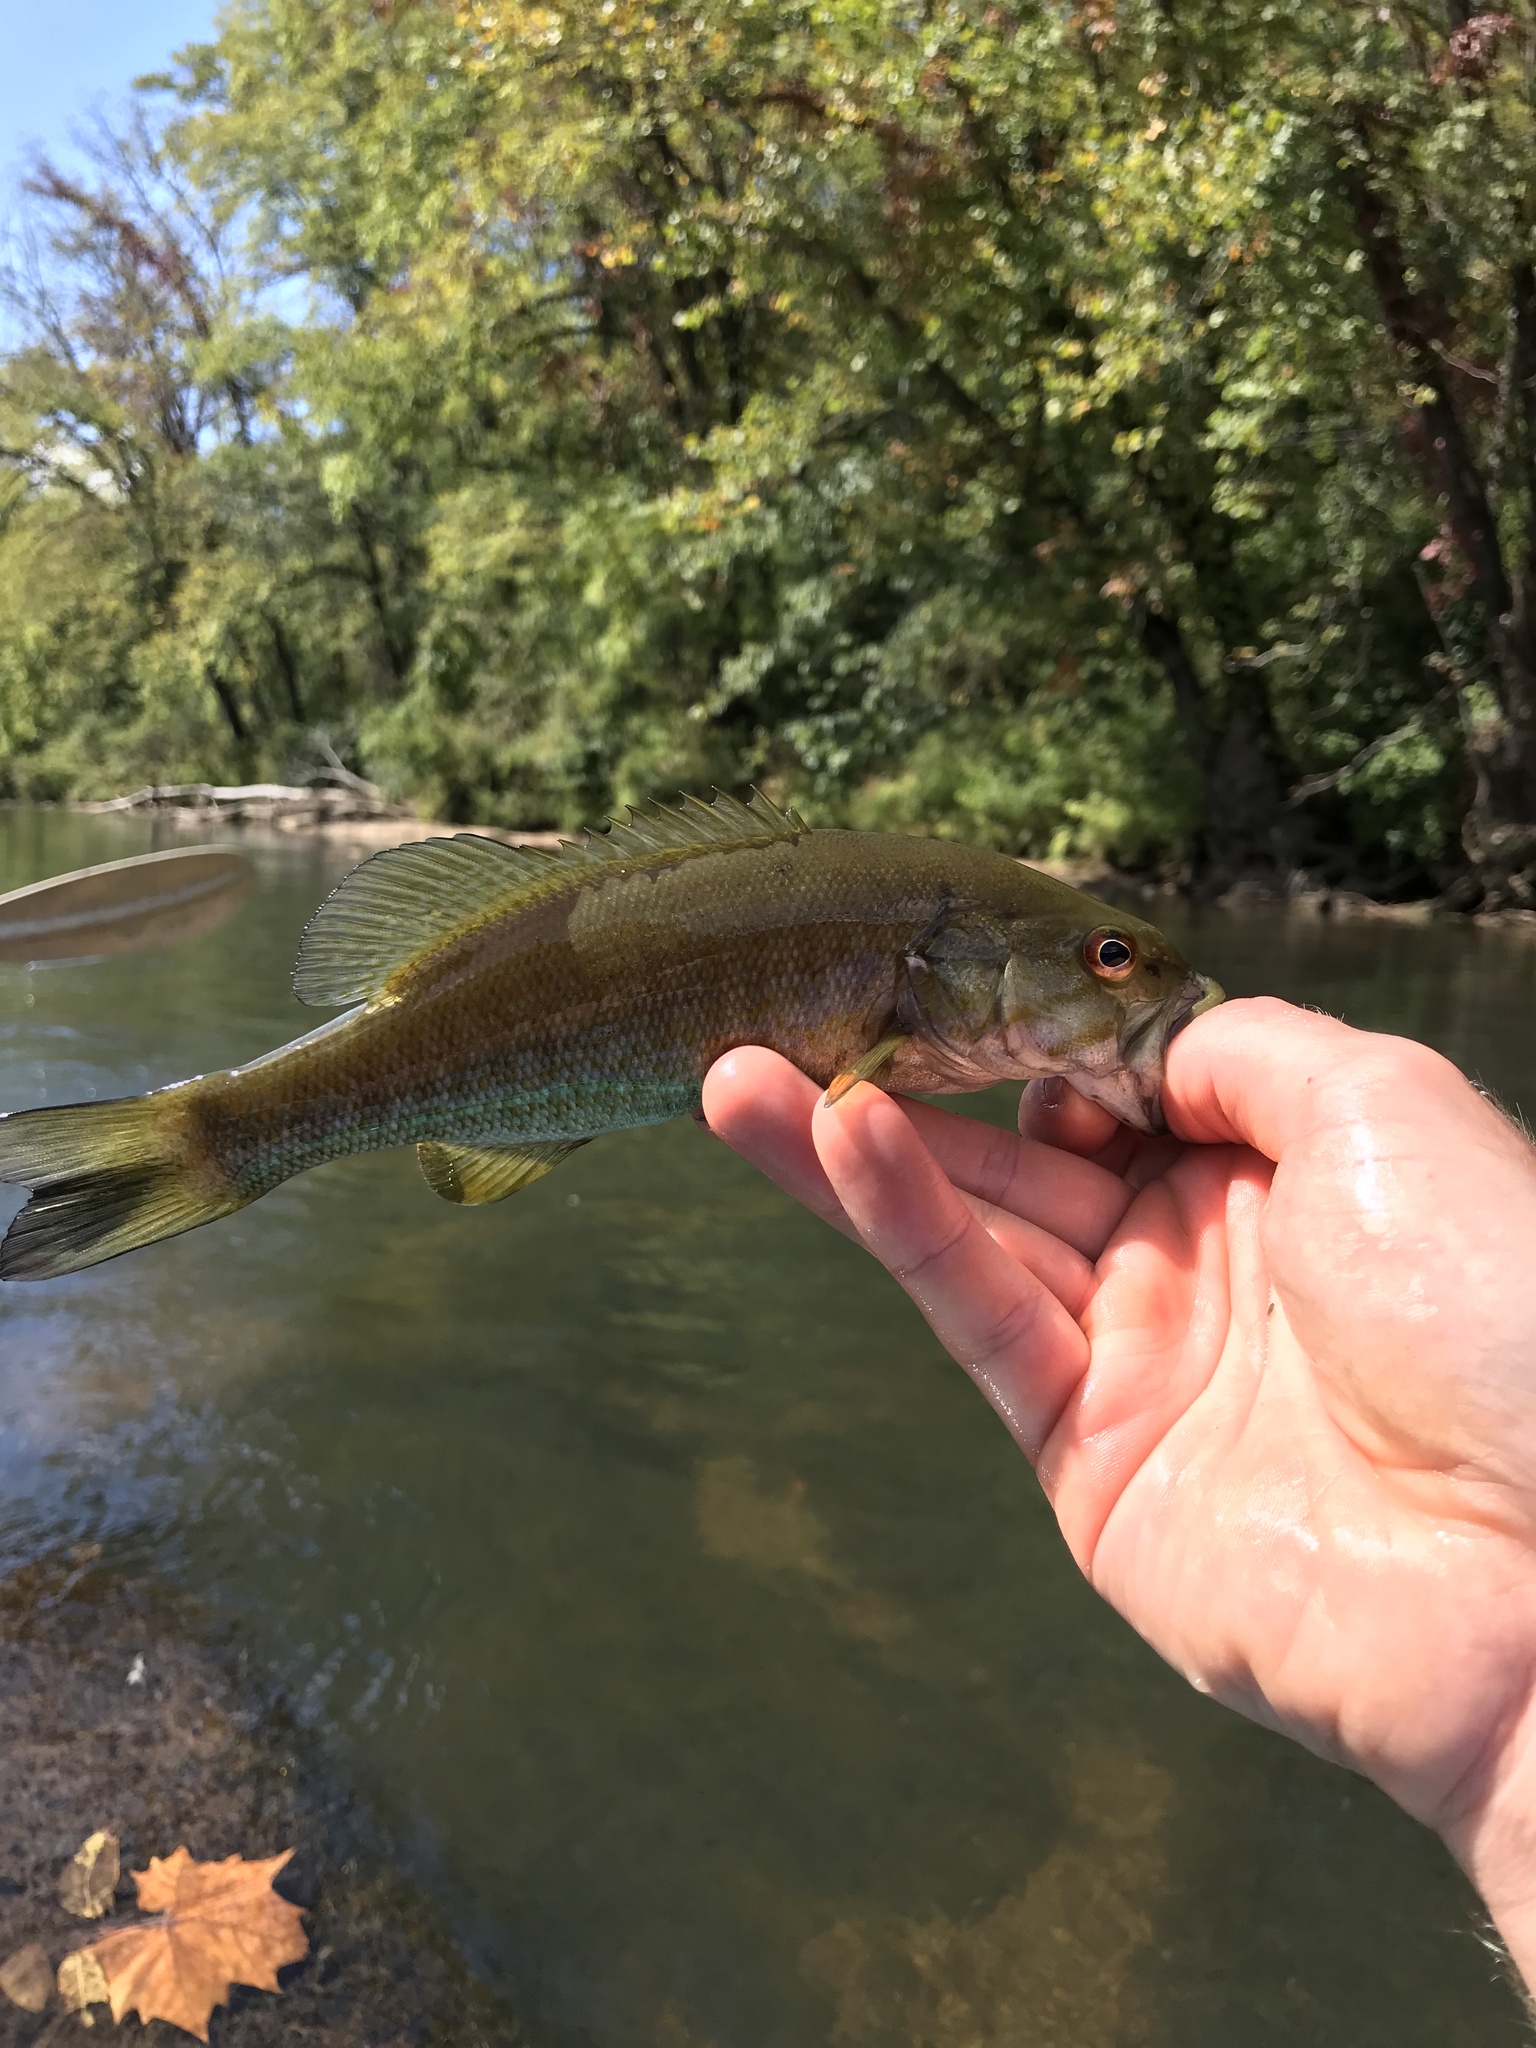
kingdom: Animalia
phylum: Chordata
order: Perciformes
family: Centrarchidae
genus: Micropterus
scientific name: Micropterus dolomieu
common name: Smallmouth bass
